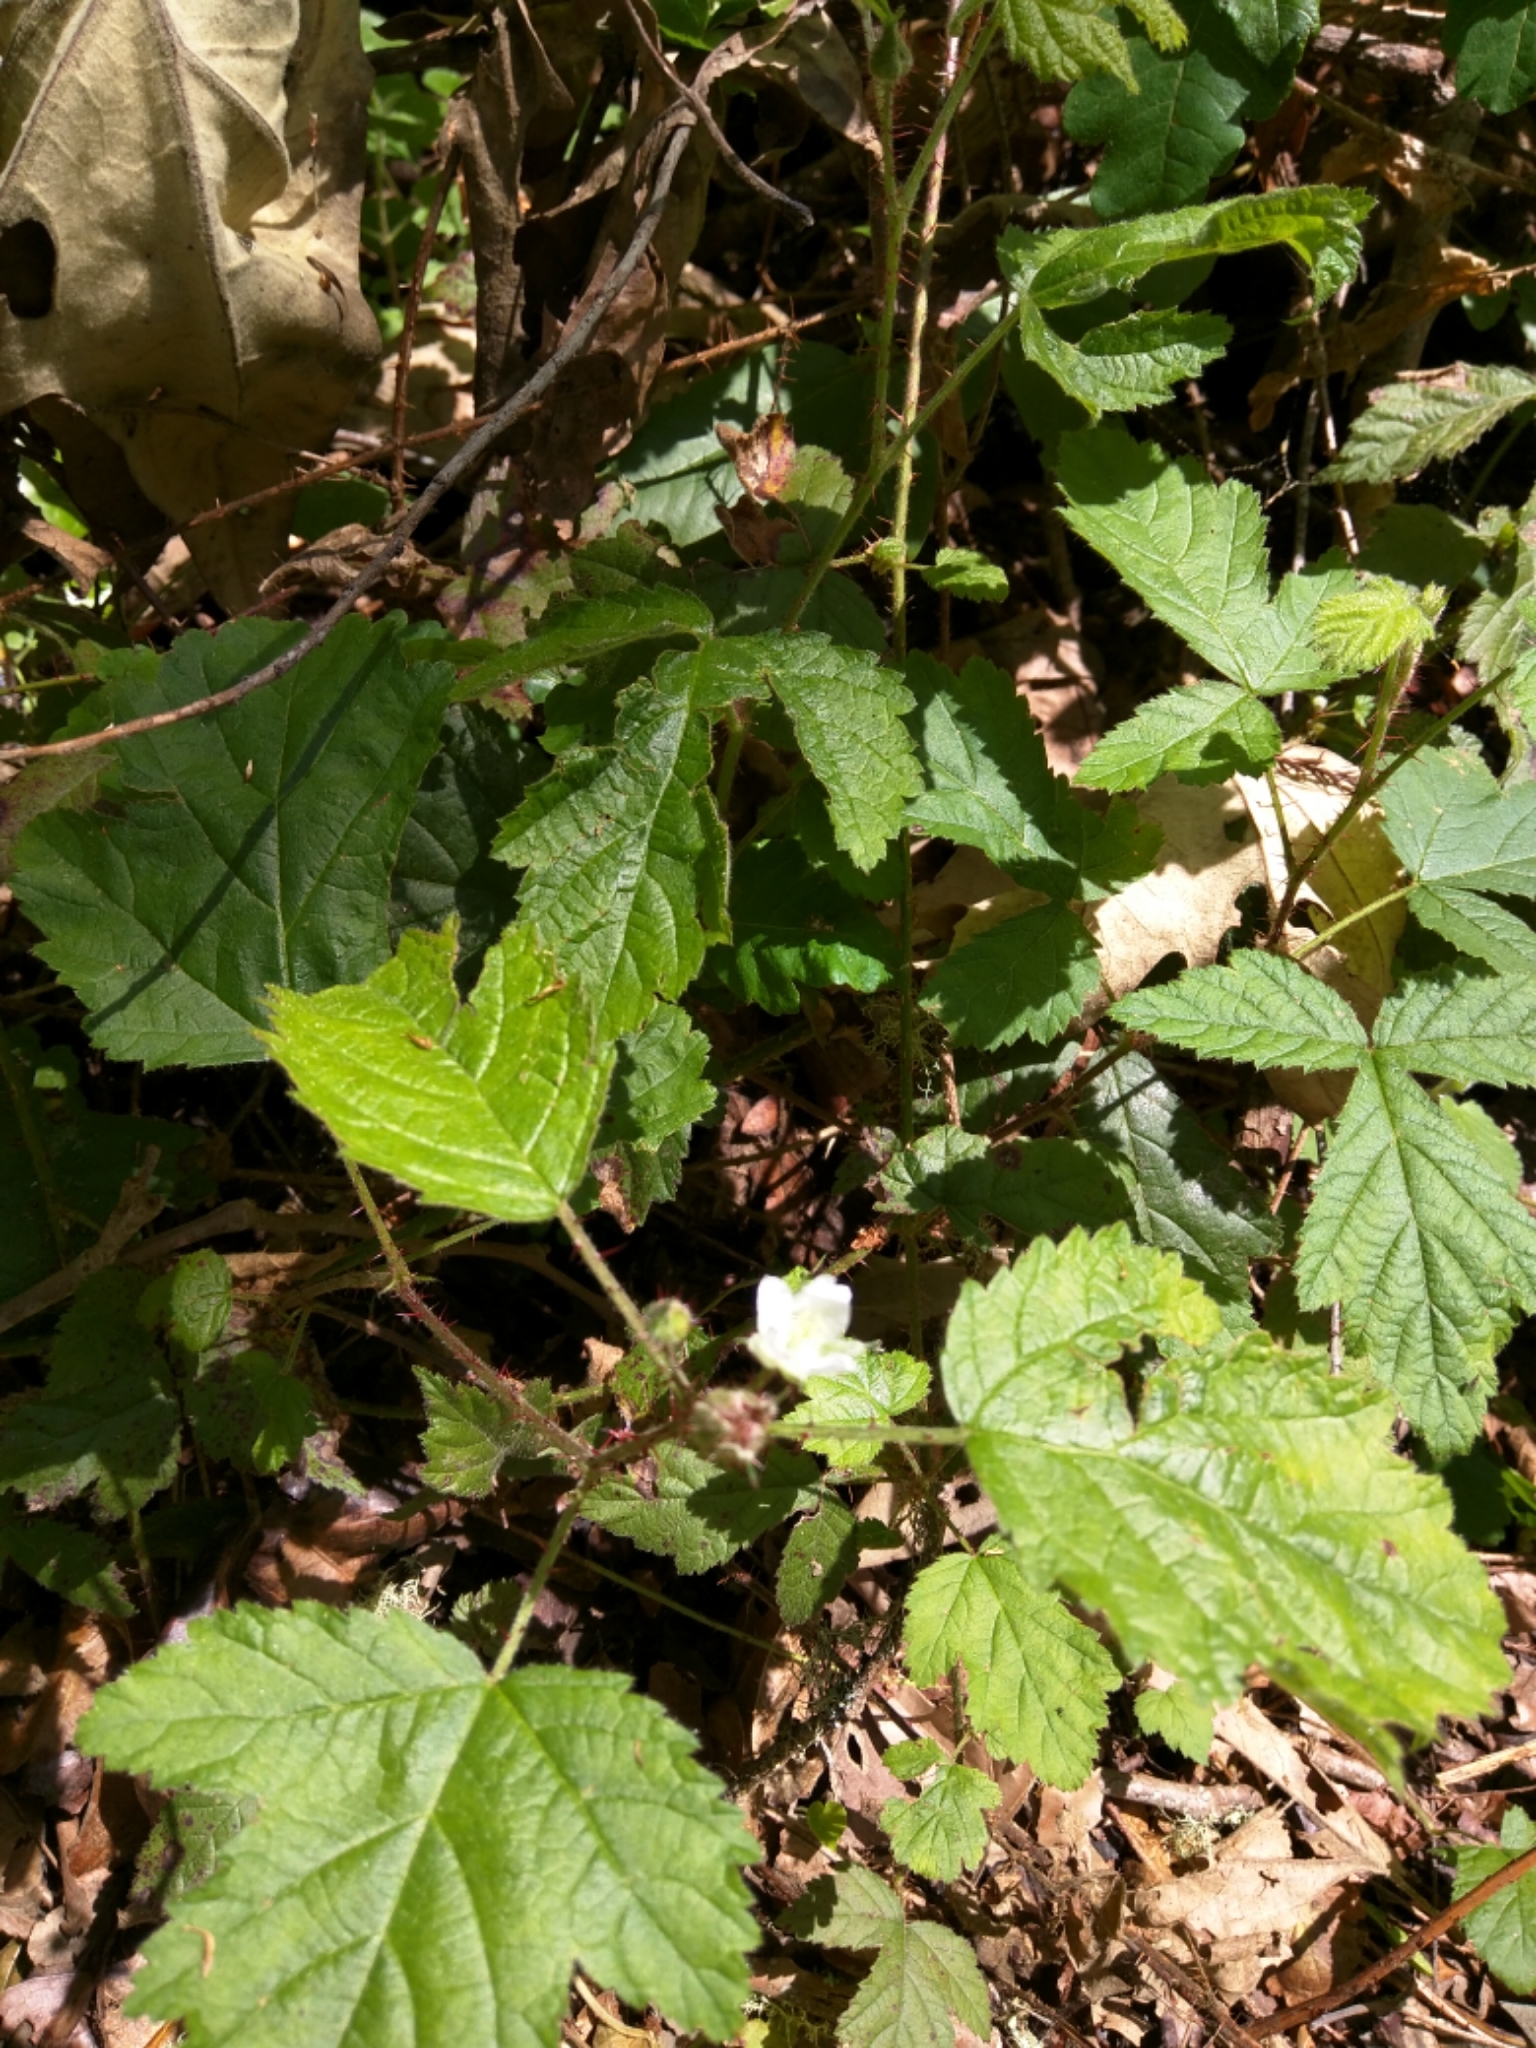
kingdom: Plantae
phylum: Tracheophyta
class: Magnoliopsida
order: Rosales
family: Rosaceae
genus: Rubus
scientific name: Rubus ursinus
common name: Pacific blackberry
